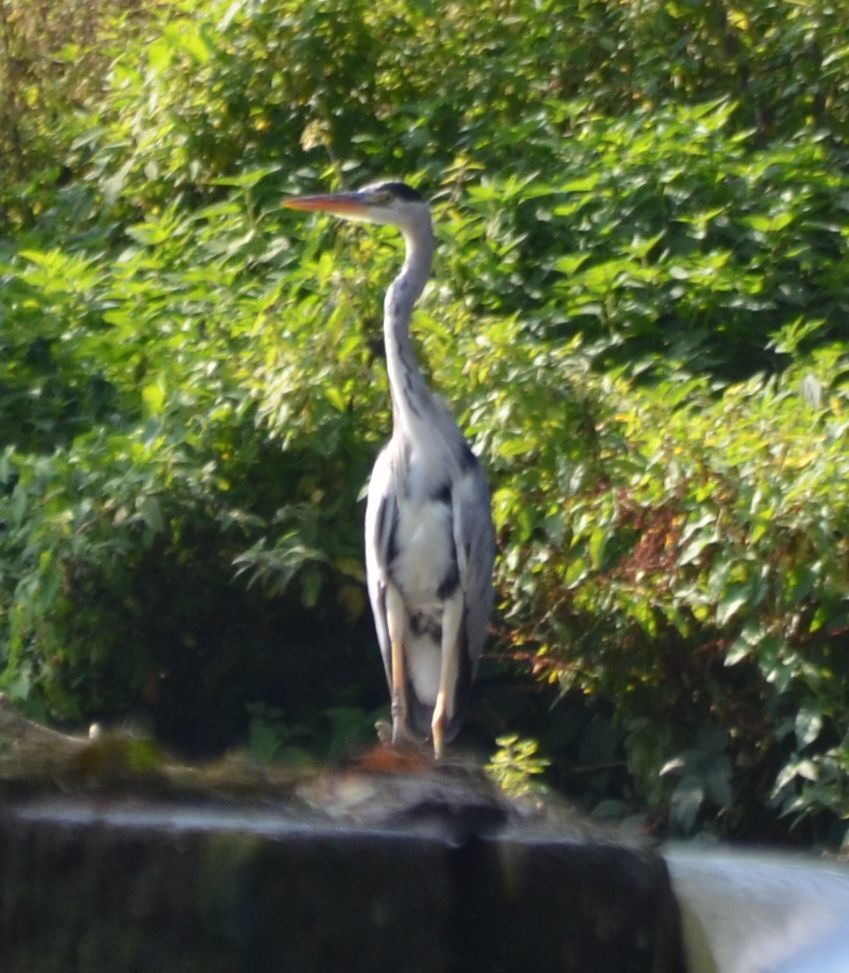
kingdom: Animalia
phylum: Chordata
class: Aves
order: Pelecaniformes
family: Ardeidae
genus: Ardea
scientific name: Ardea cinerea
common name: Grey heron
